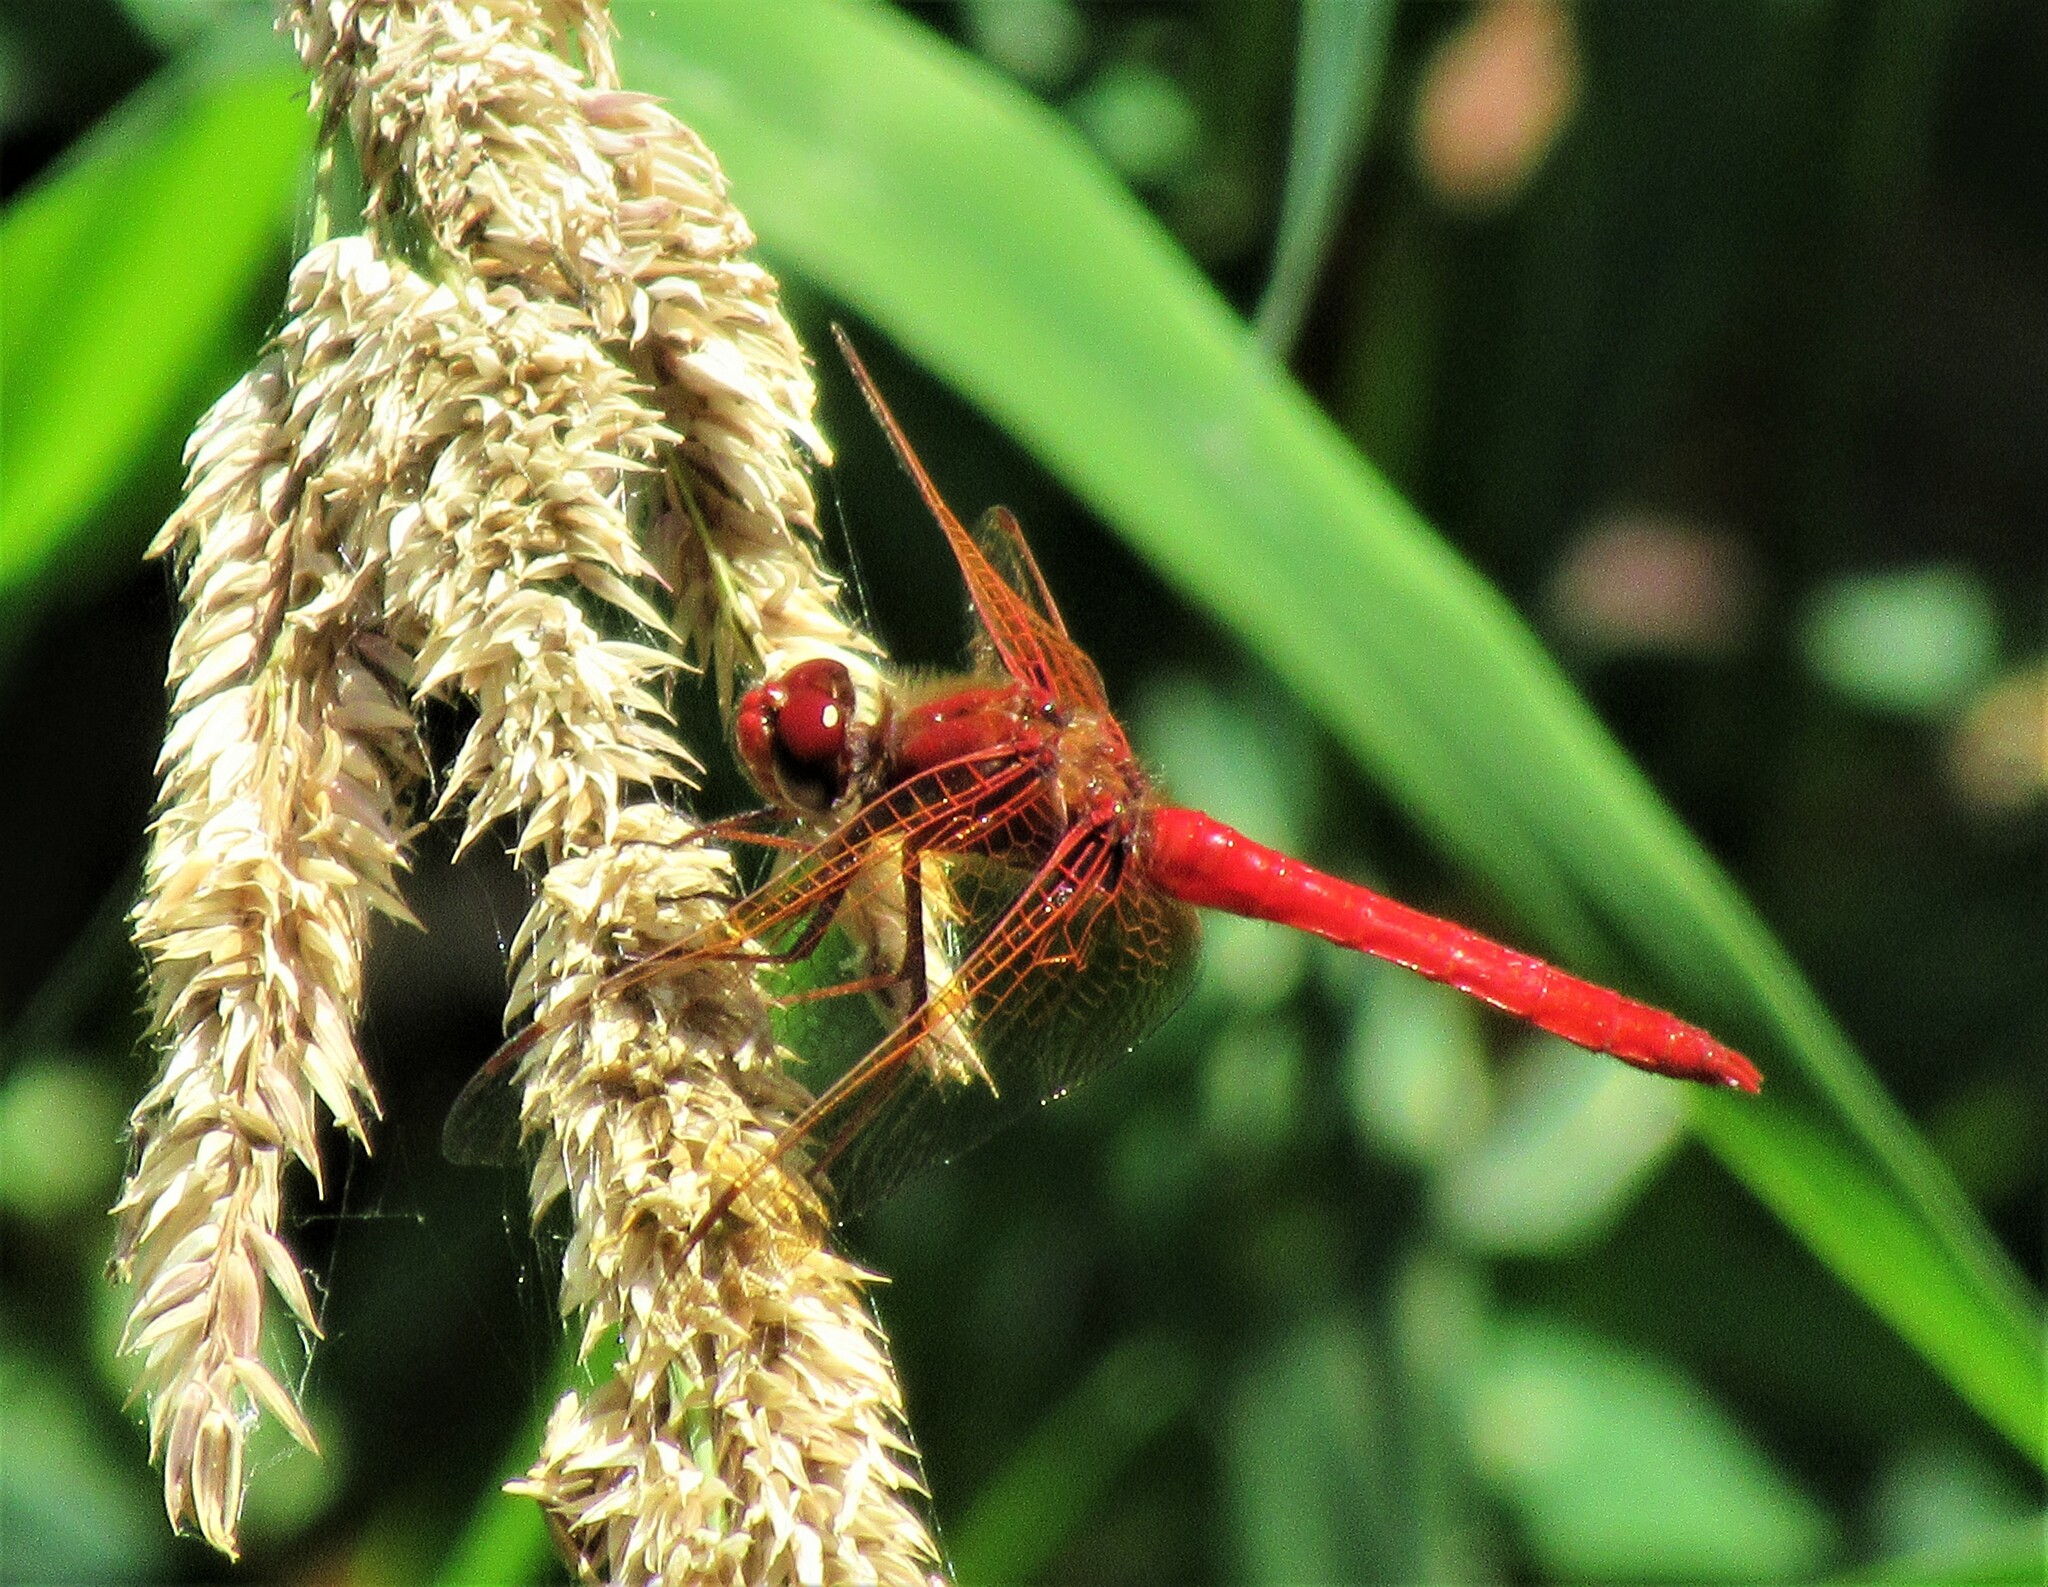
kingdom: Animalia
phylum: Arthropoda
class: Insecta
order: Odonata
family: Libellulidae
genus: Sympetrum
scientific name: Sympetrum illotum
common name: Cardinal meadowhawk
